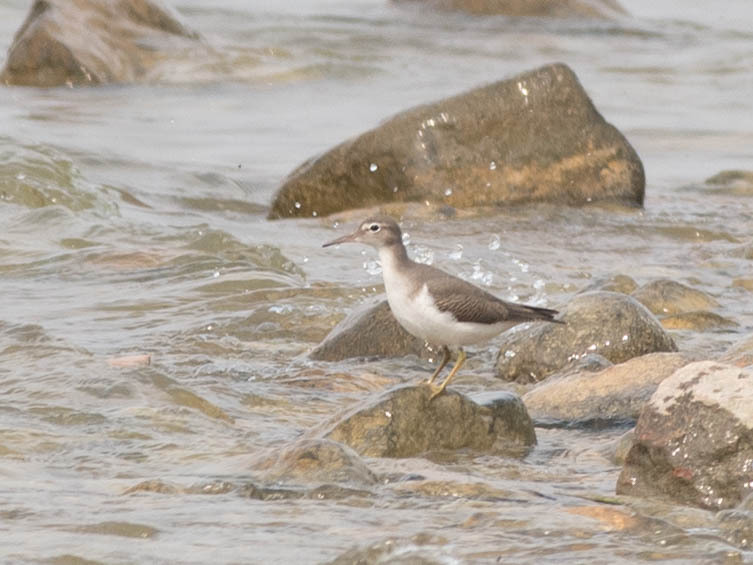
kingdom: Animalia
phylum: Chordata
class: Aves
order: Charadriiformes
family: Scolopacidae
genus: Actitis
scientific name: Actitis macularius
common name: Spotted sandpiper
